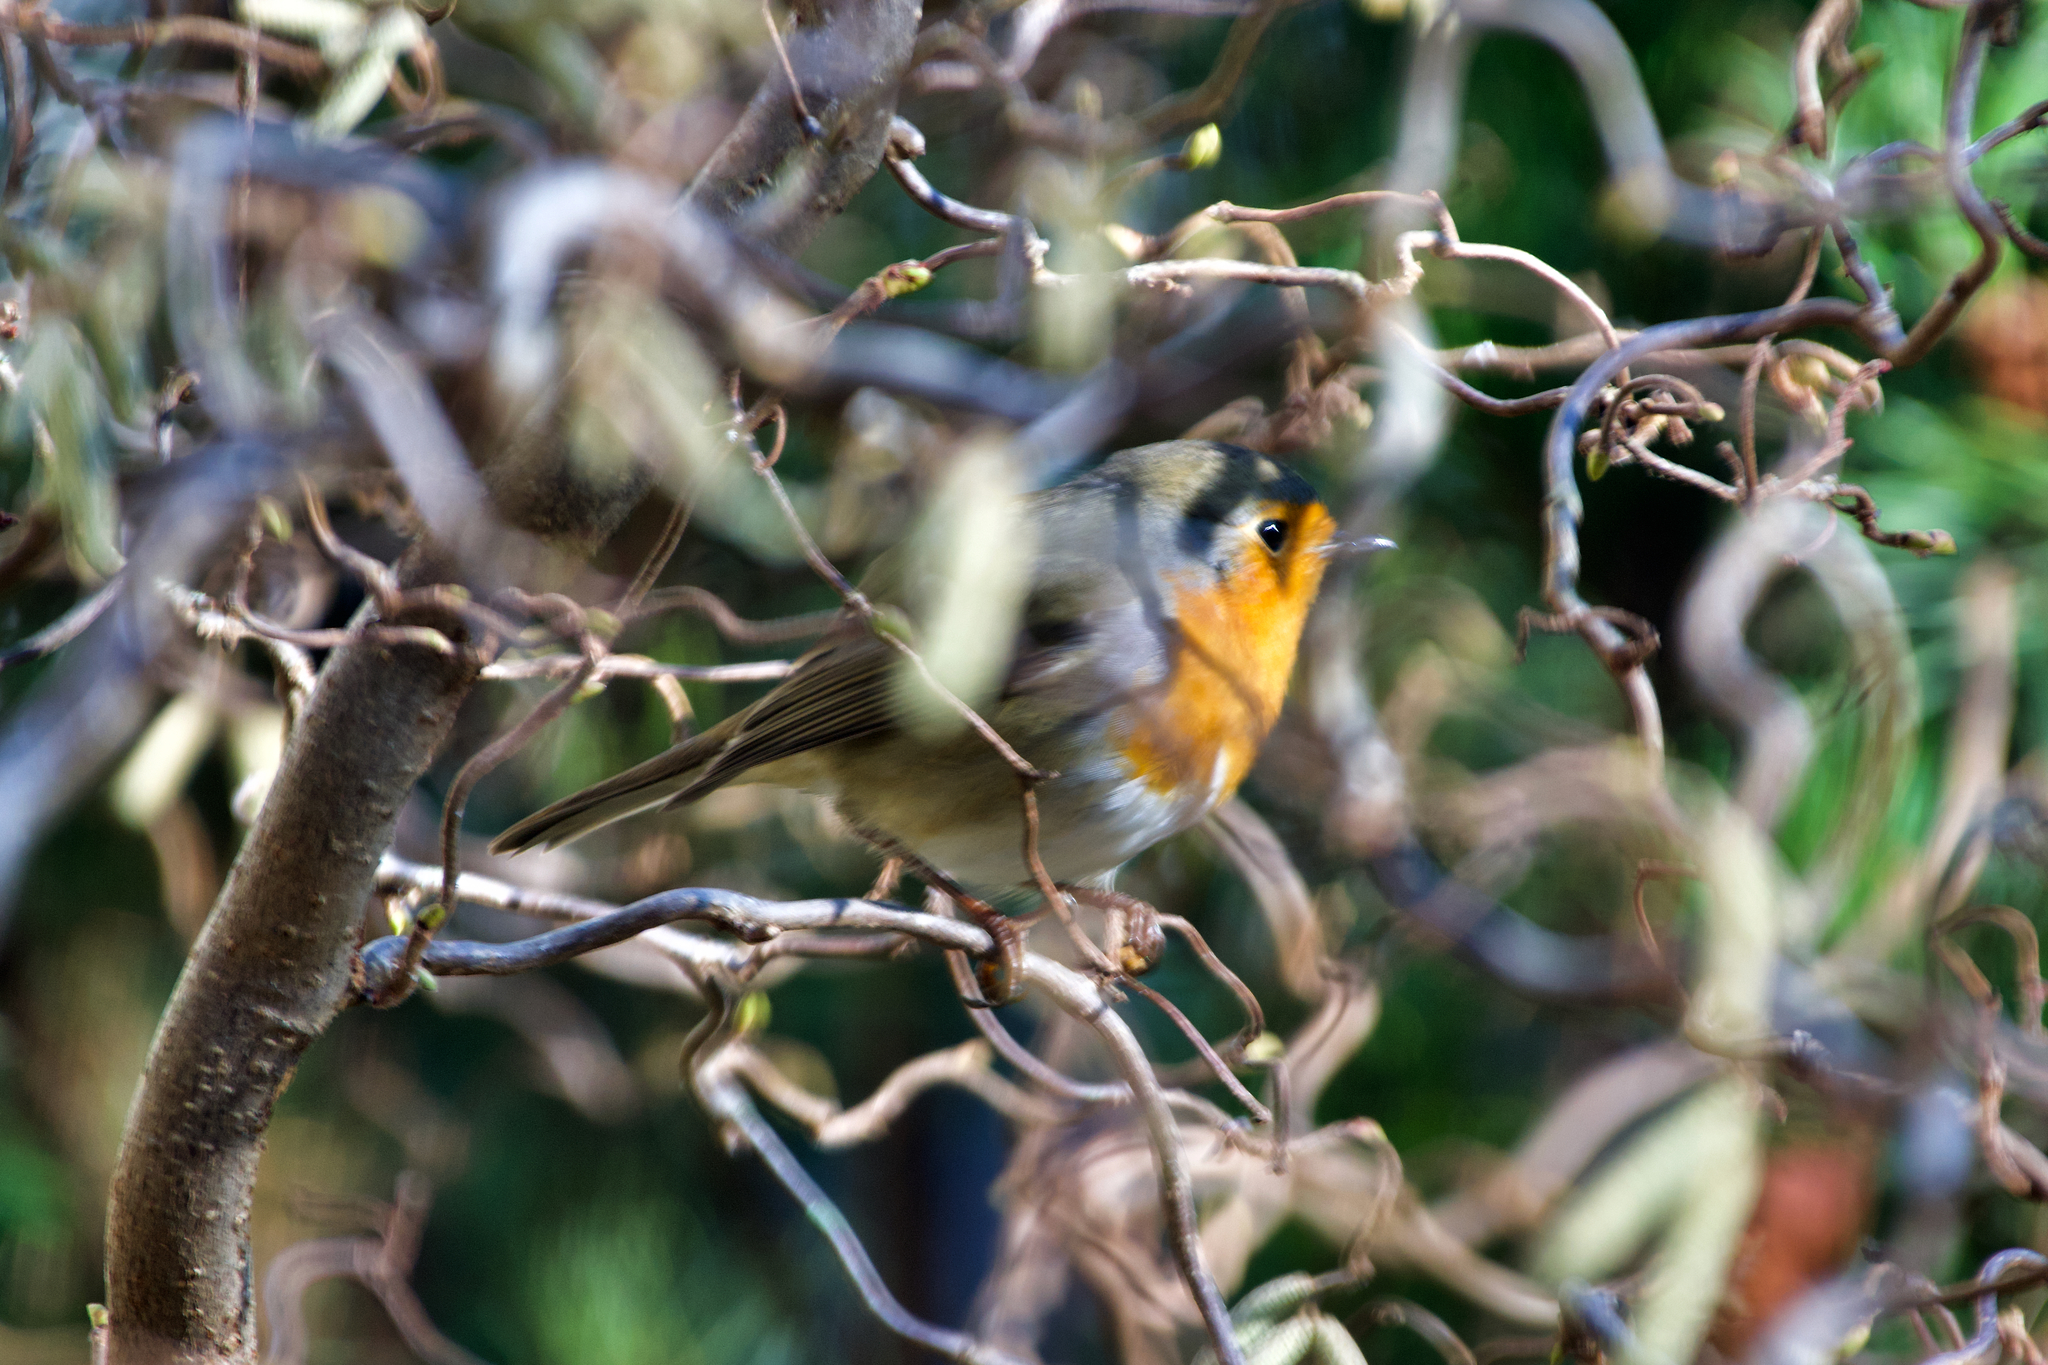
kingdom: Animalia
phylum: Chordata
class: Aves
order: Passeriformes
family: Muscicapidae
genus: Erithacus
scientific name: Erithacus rubecula
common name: European robin
